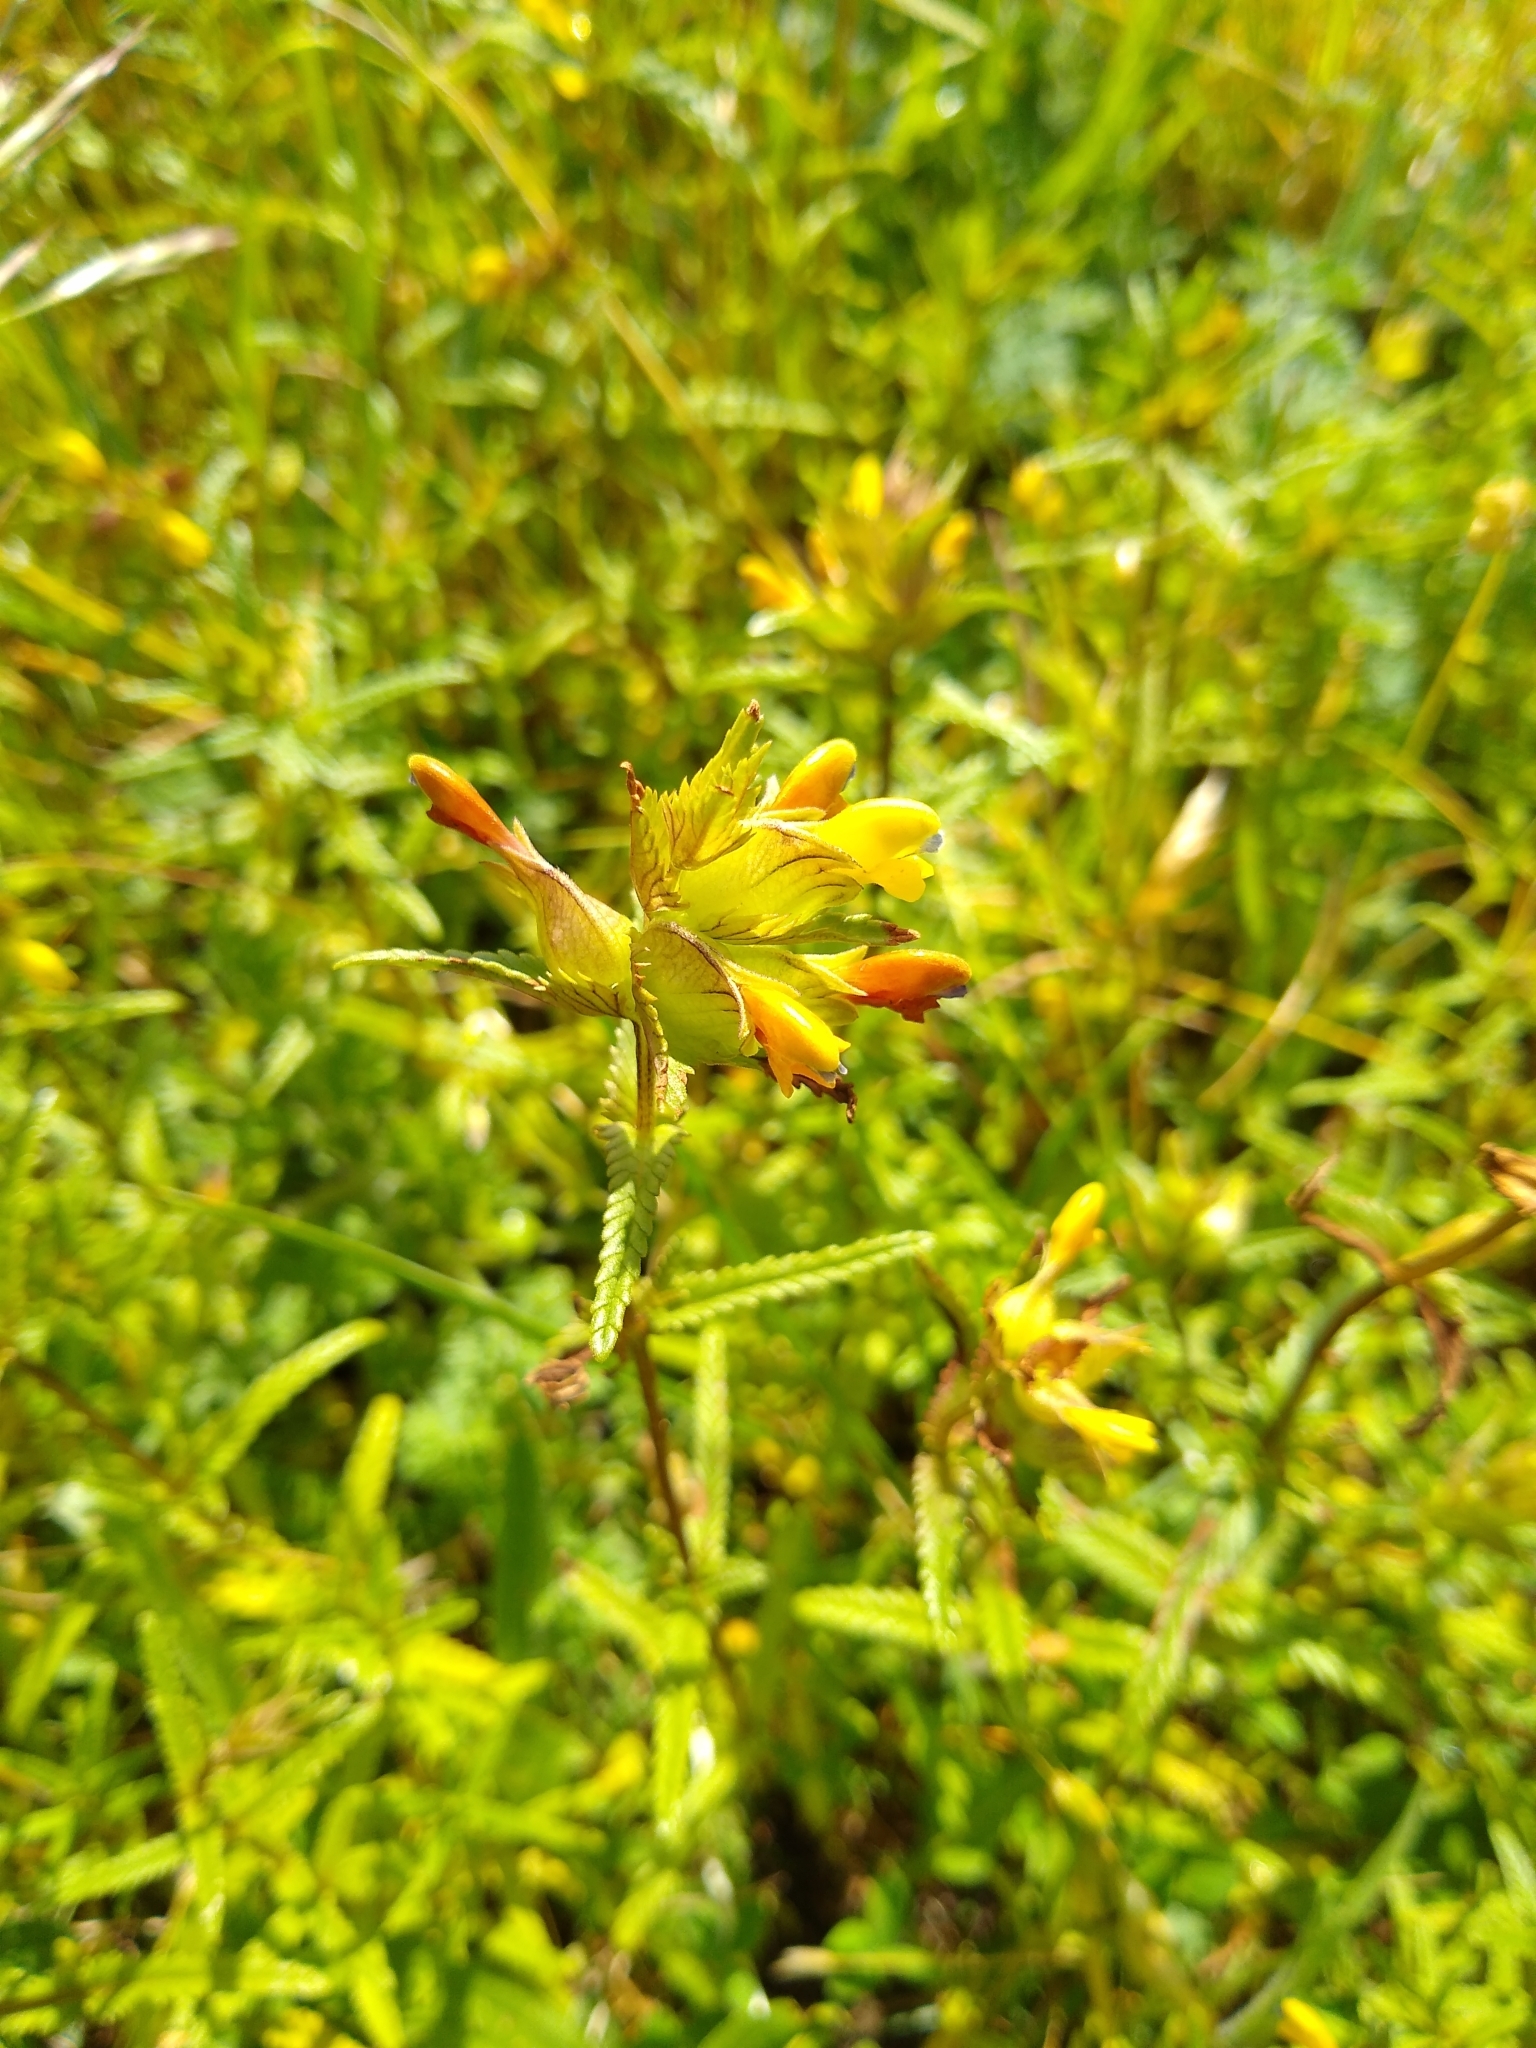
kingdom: Plantae
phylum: Tracheophyta
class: Magnoliopsida
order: Lamiales
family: Orobanchaceae
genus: Rhinanthus
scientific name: Rhinanthus minor
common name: Yellow-rattle
